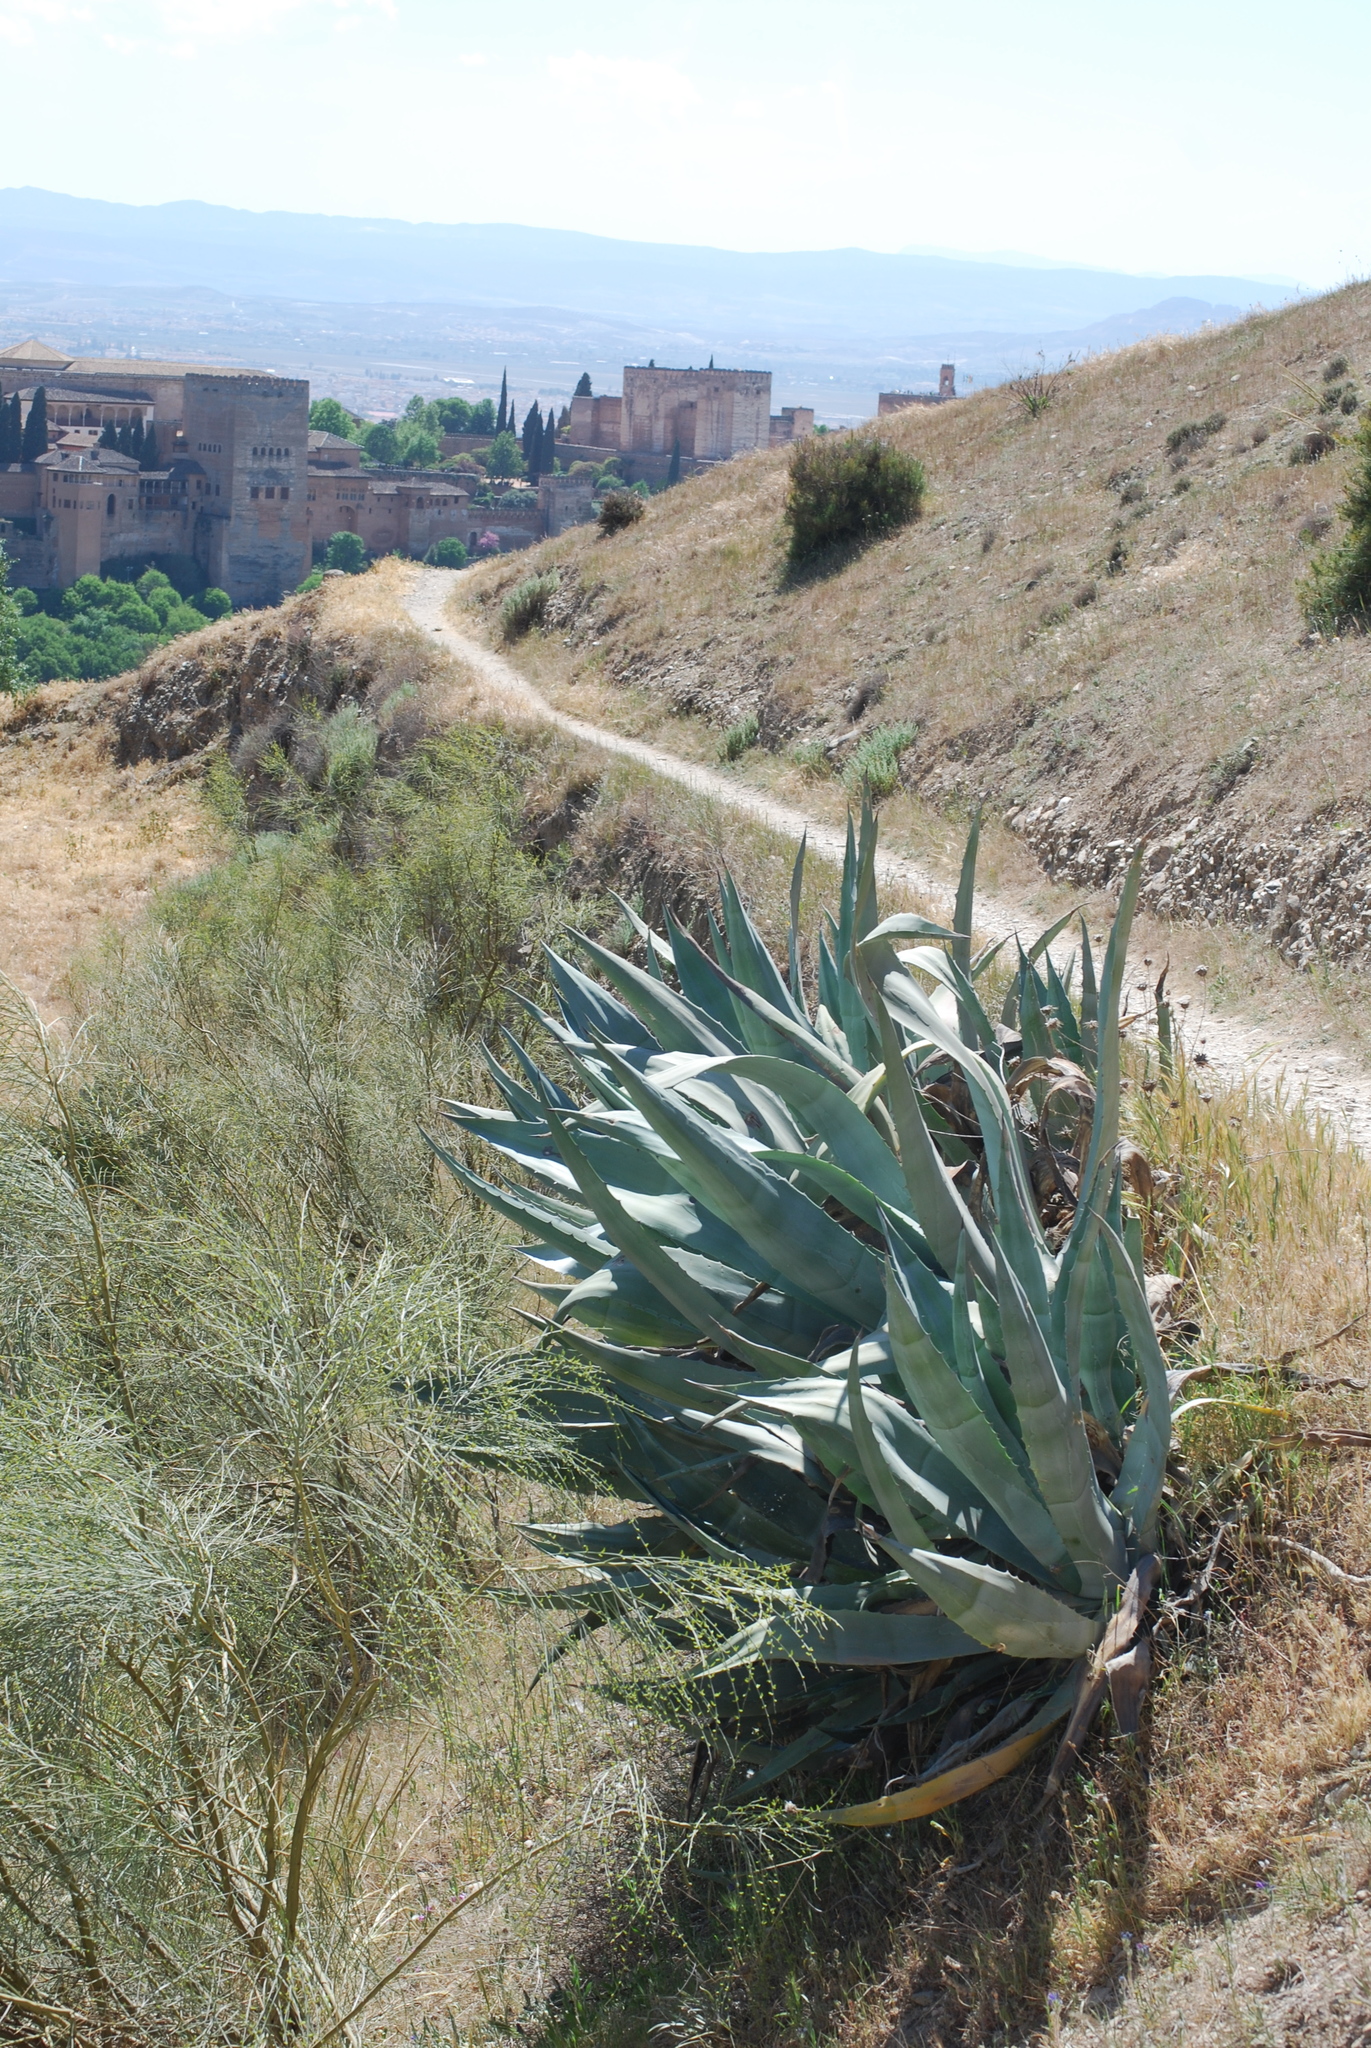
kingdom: Plantae
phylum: Tracheophyta
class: Liliopsida
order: Asparagales
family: Asparagaceae
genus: Agave
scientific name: Agave americana
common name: Centuryplant
